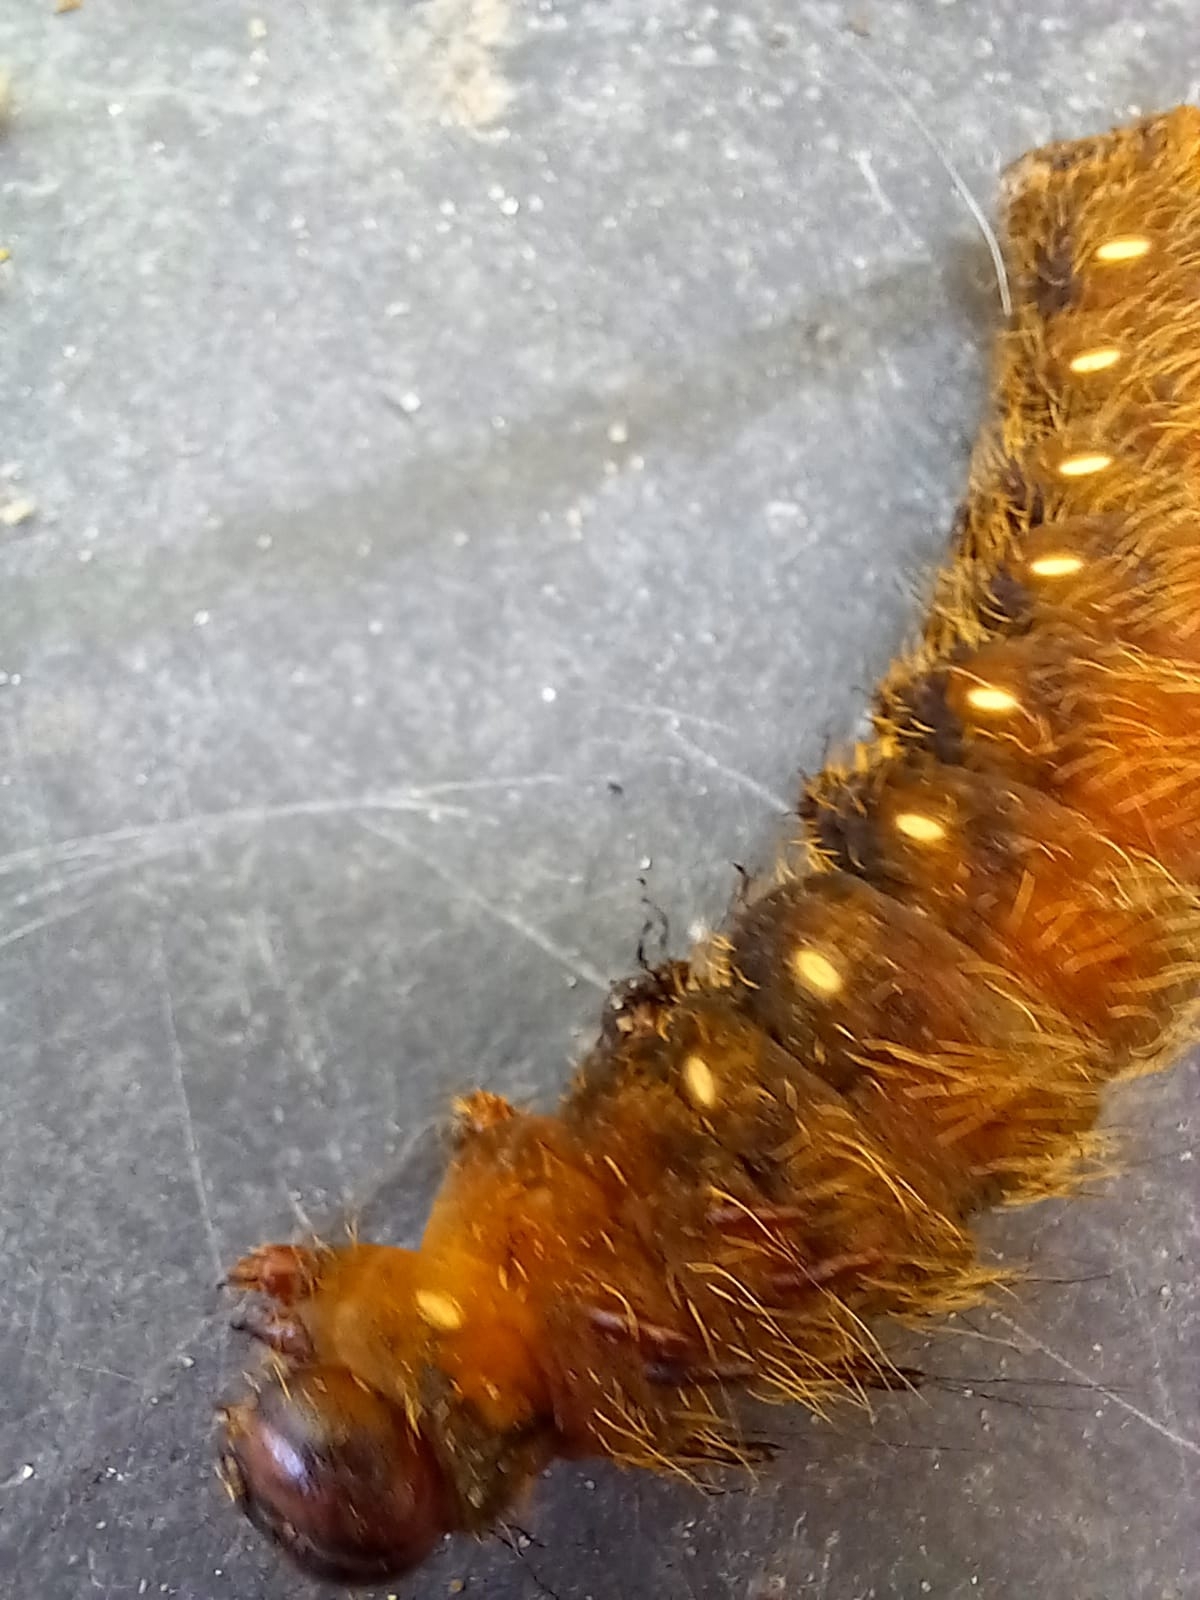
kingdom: Animalia
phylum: Arthropoda
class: Insecta
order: Lepidoptera
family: Saturniidae
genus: Eacles
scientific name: Eacles imperialis
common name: Imperial moth
